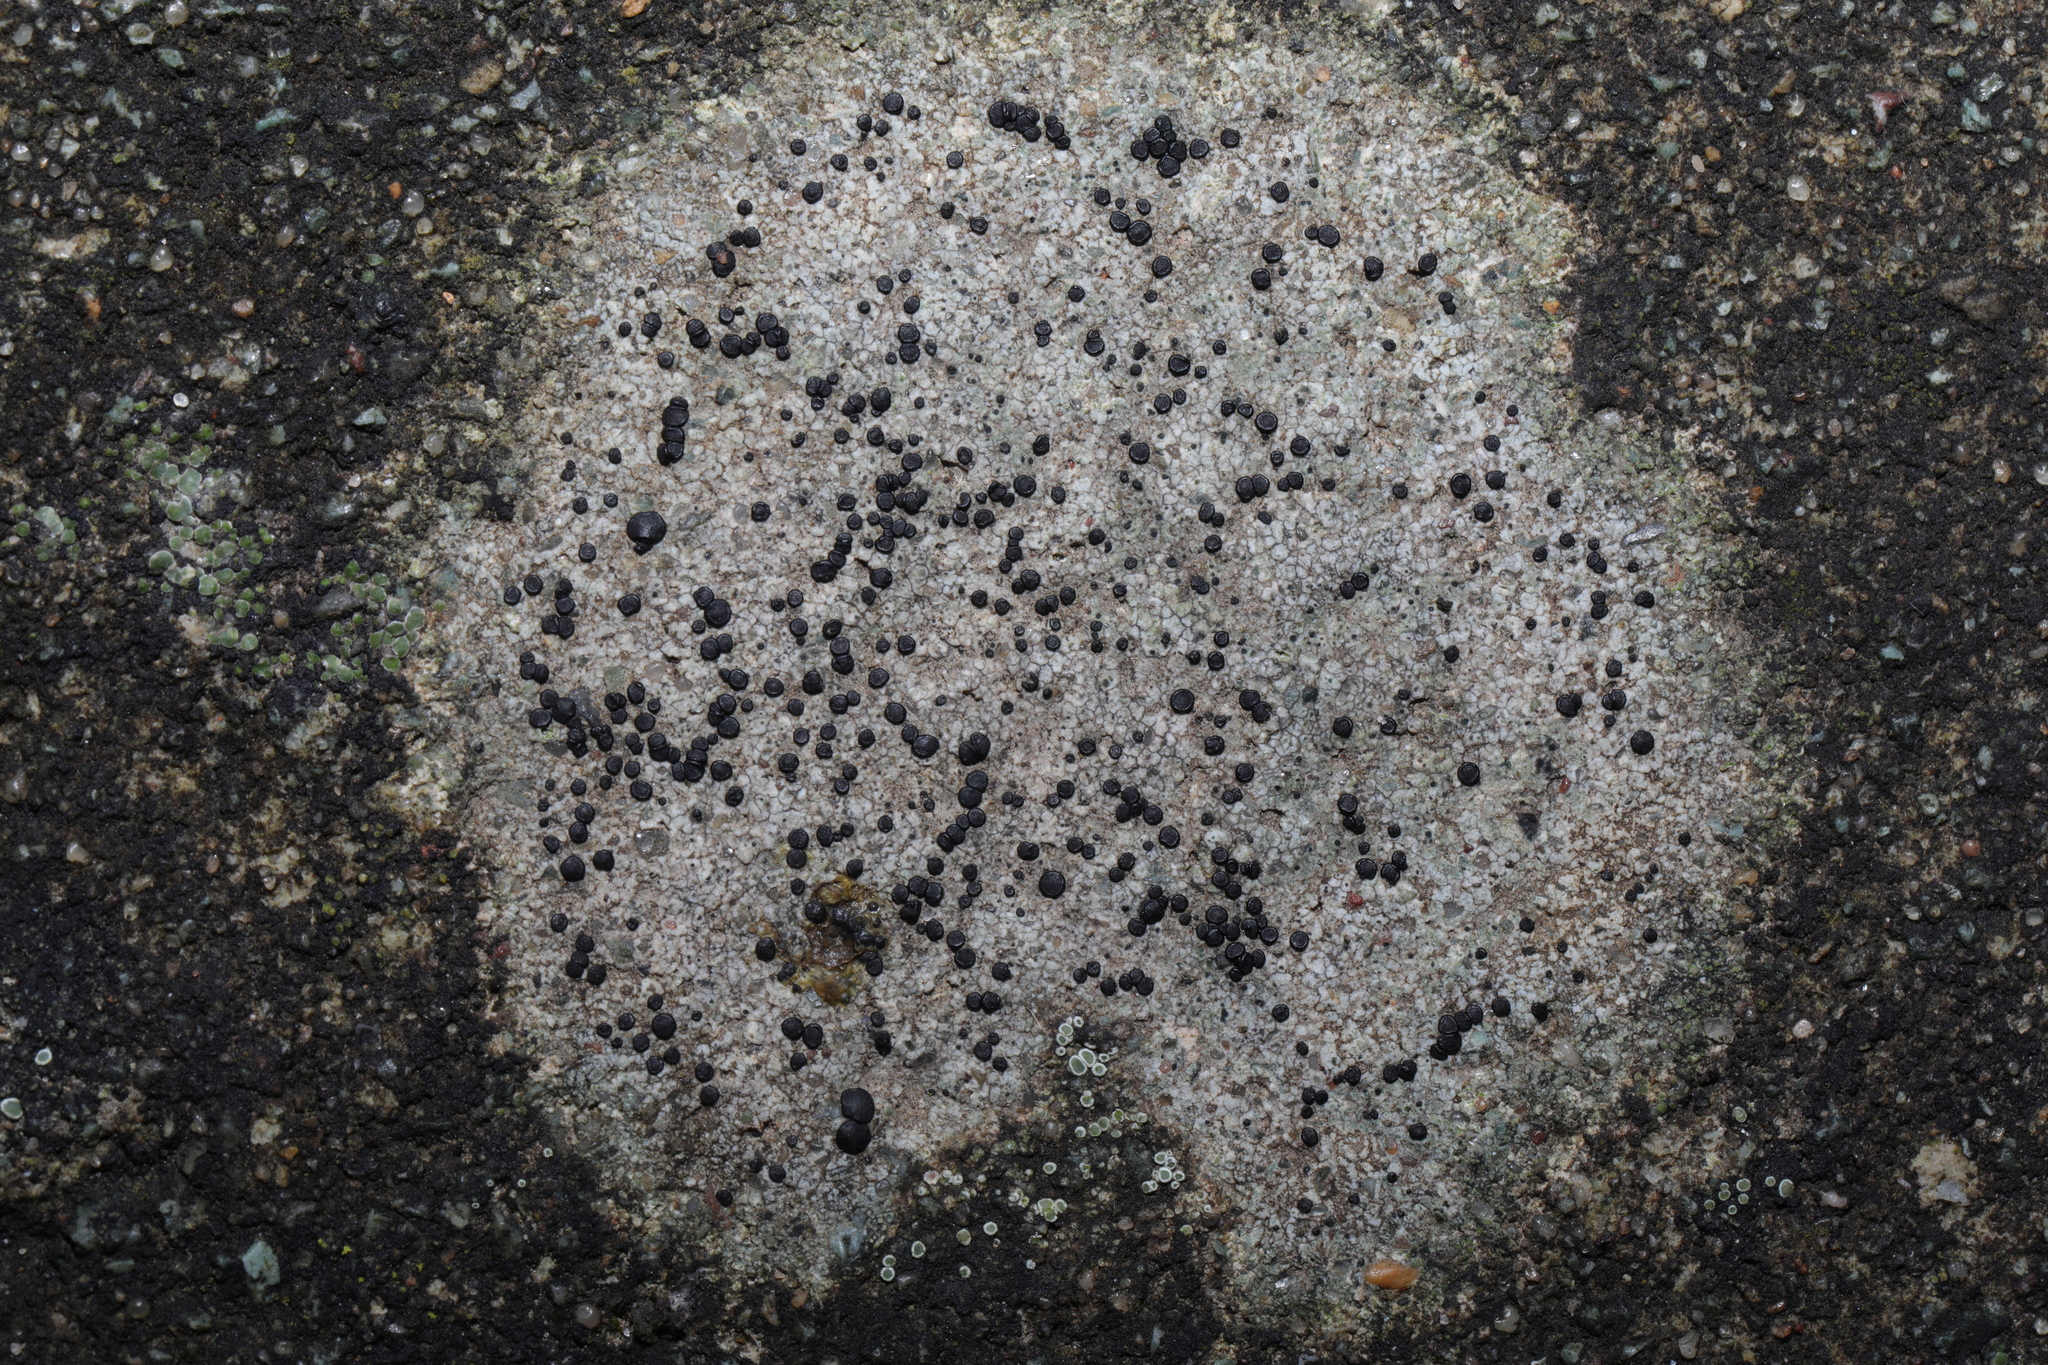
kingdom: Fungi
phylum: Ascomycota
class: Lecanoromycetes
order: Lecanorales
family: Lecanoraceae
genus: Lecidella
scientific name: Lecidella stigmatea
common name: Limestone disc lichen
